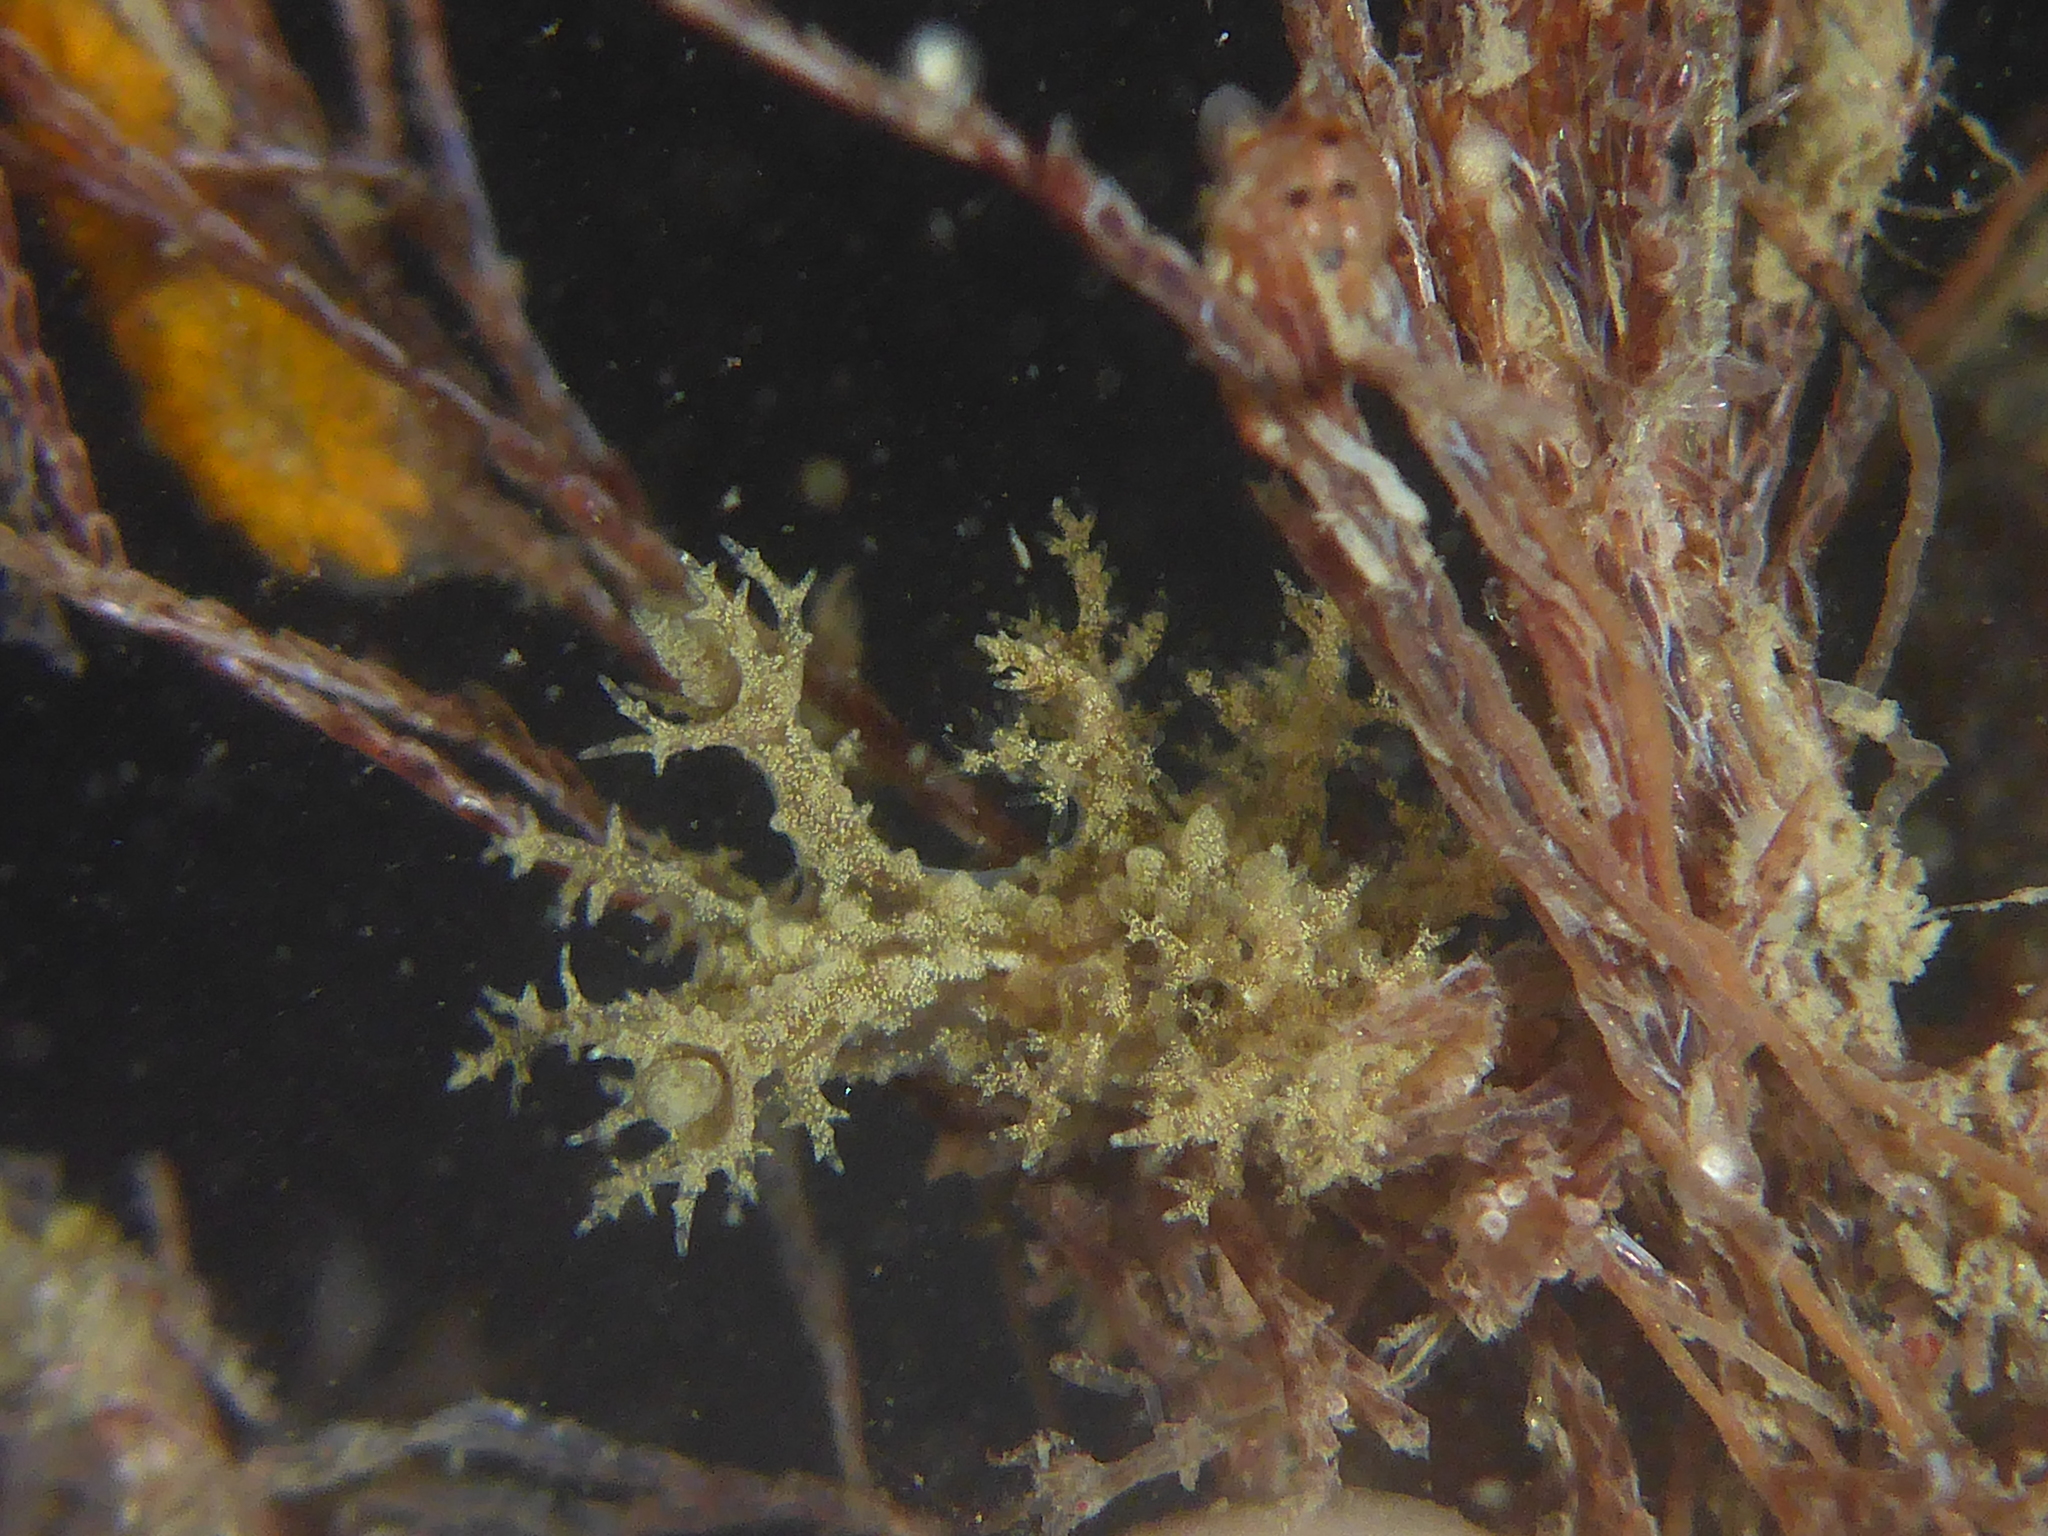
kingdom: Animalia
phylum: Mollusca
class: Gastropoda
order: Nudibranchia
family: Dendronotidae
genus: Dendronotus
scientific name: Dendronotus venustus
